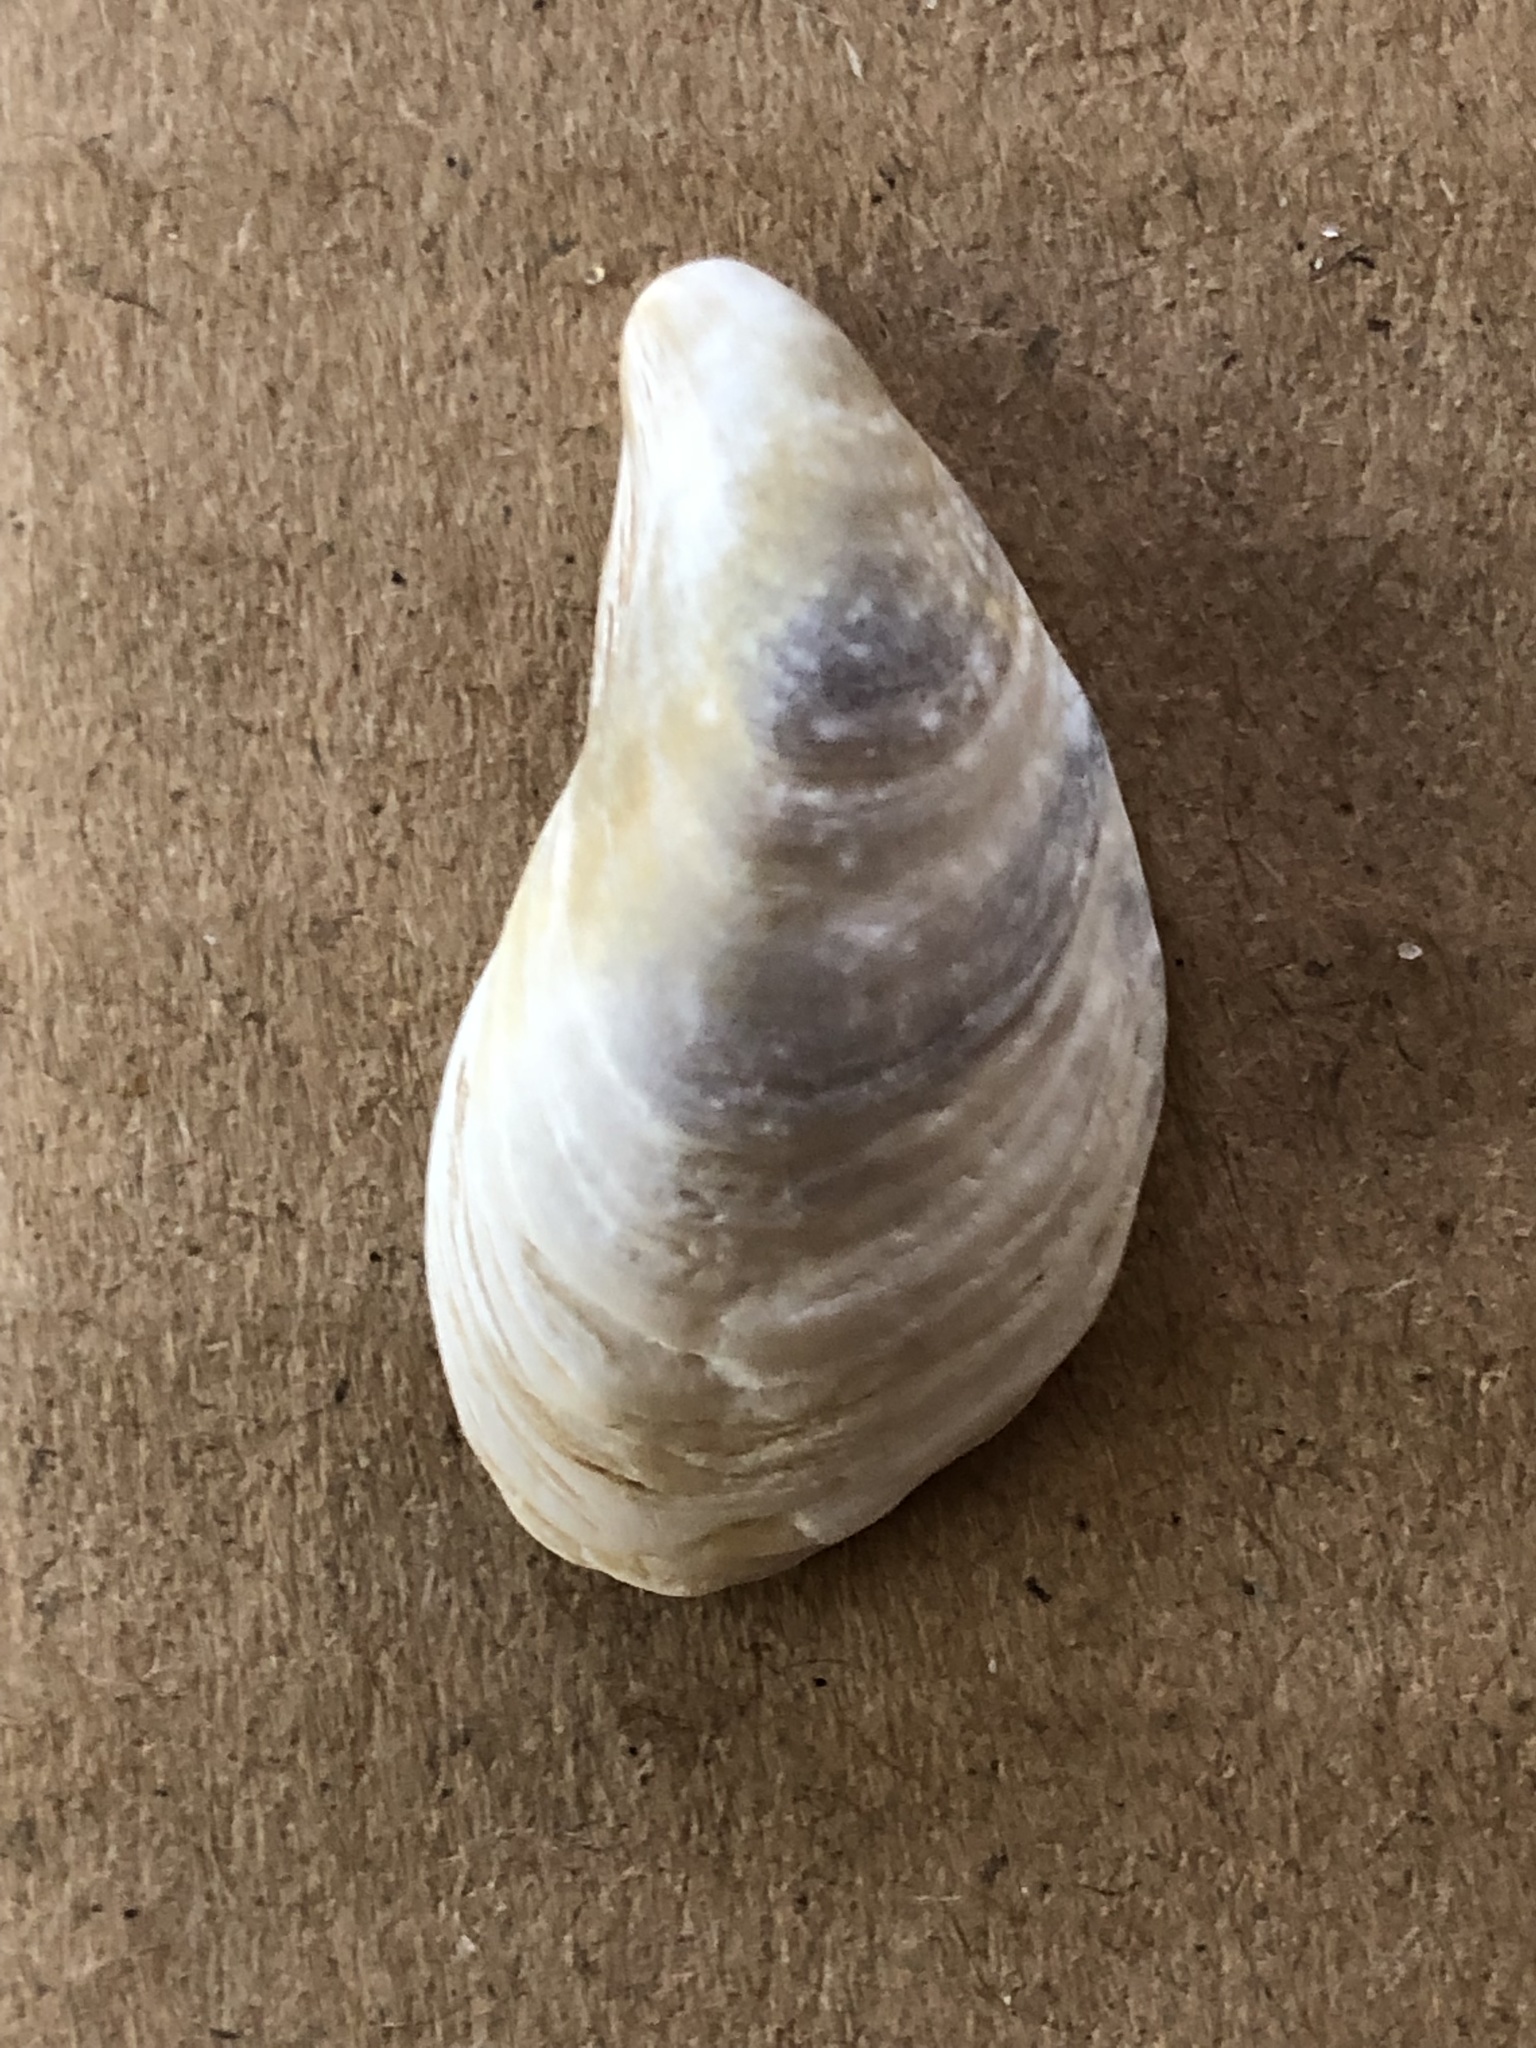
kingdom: Animalia
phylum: Mollusca
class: Bivalvia
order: Myida
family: Dreissenidae
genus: Dreissena
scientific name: Dreissena bugensis
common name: Quagga mussel
